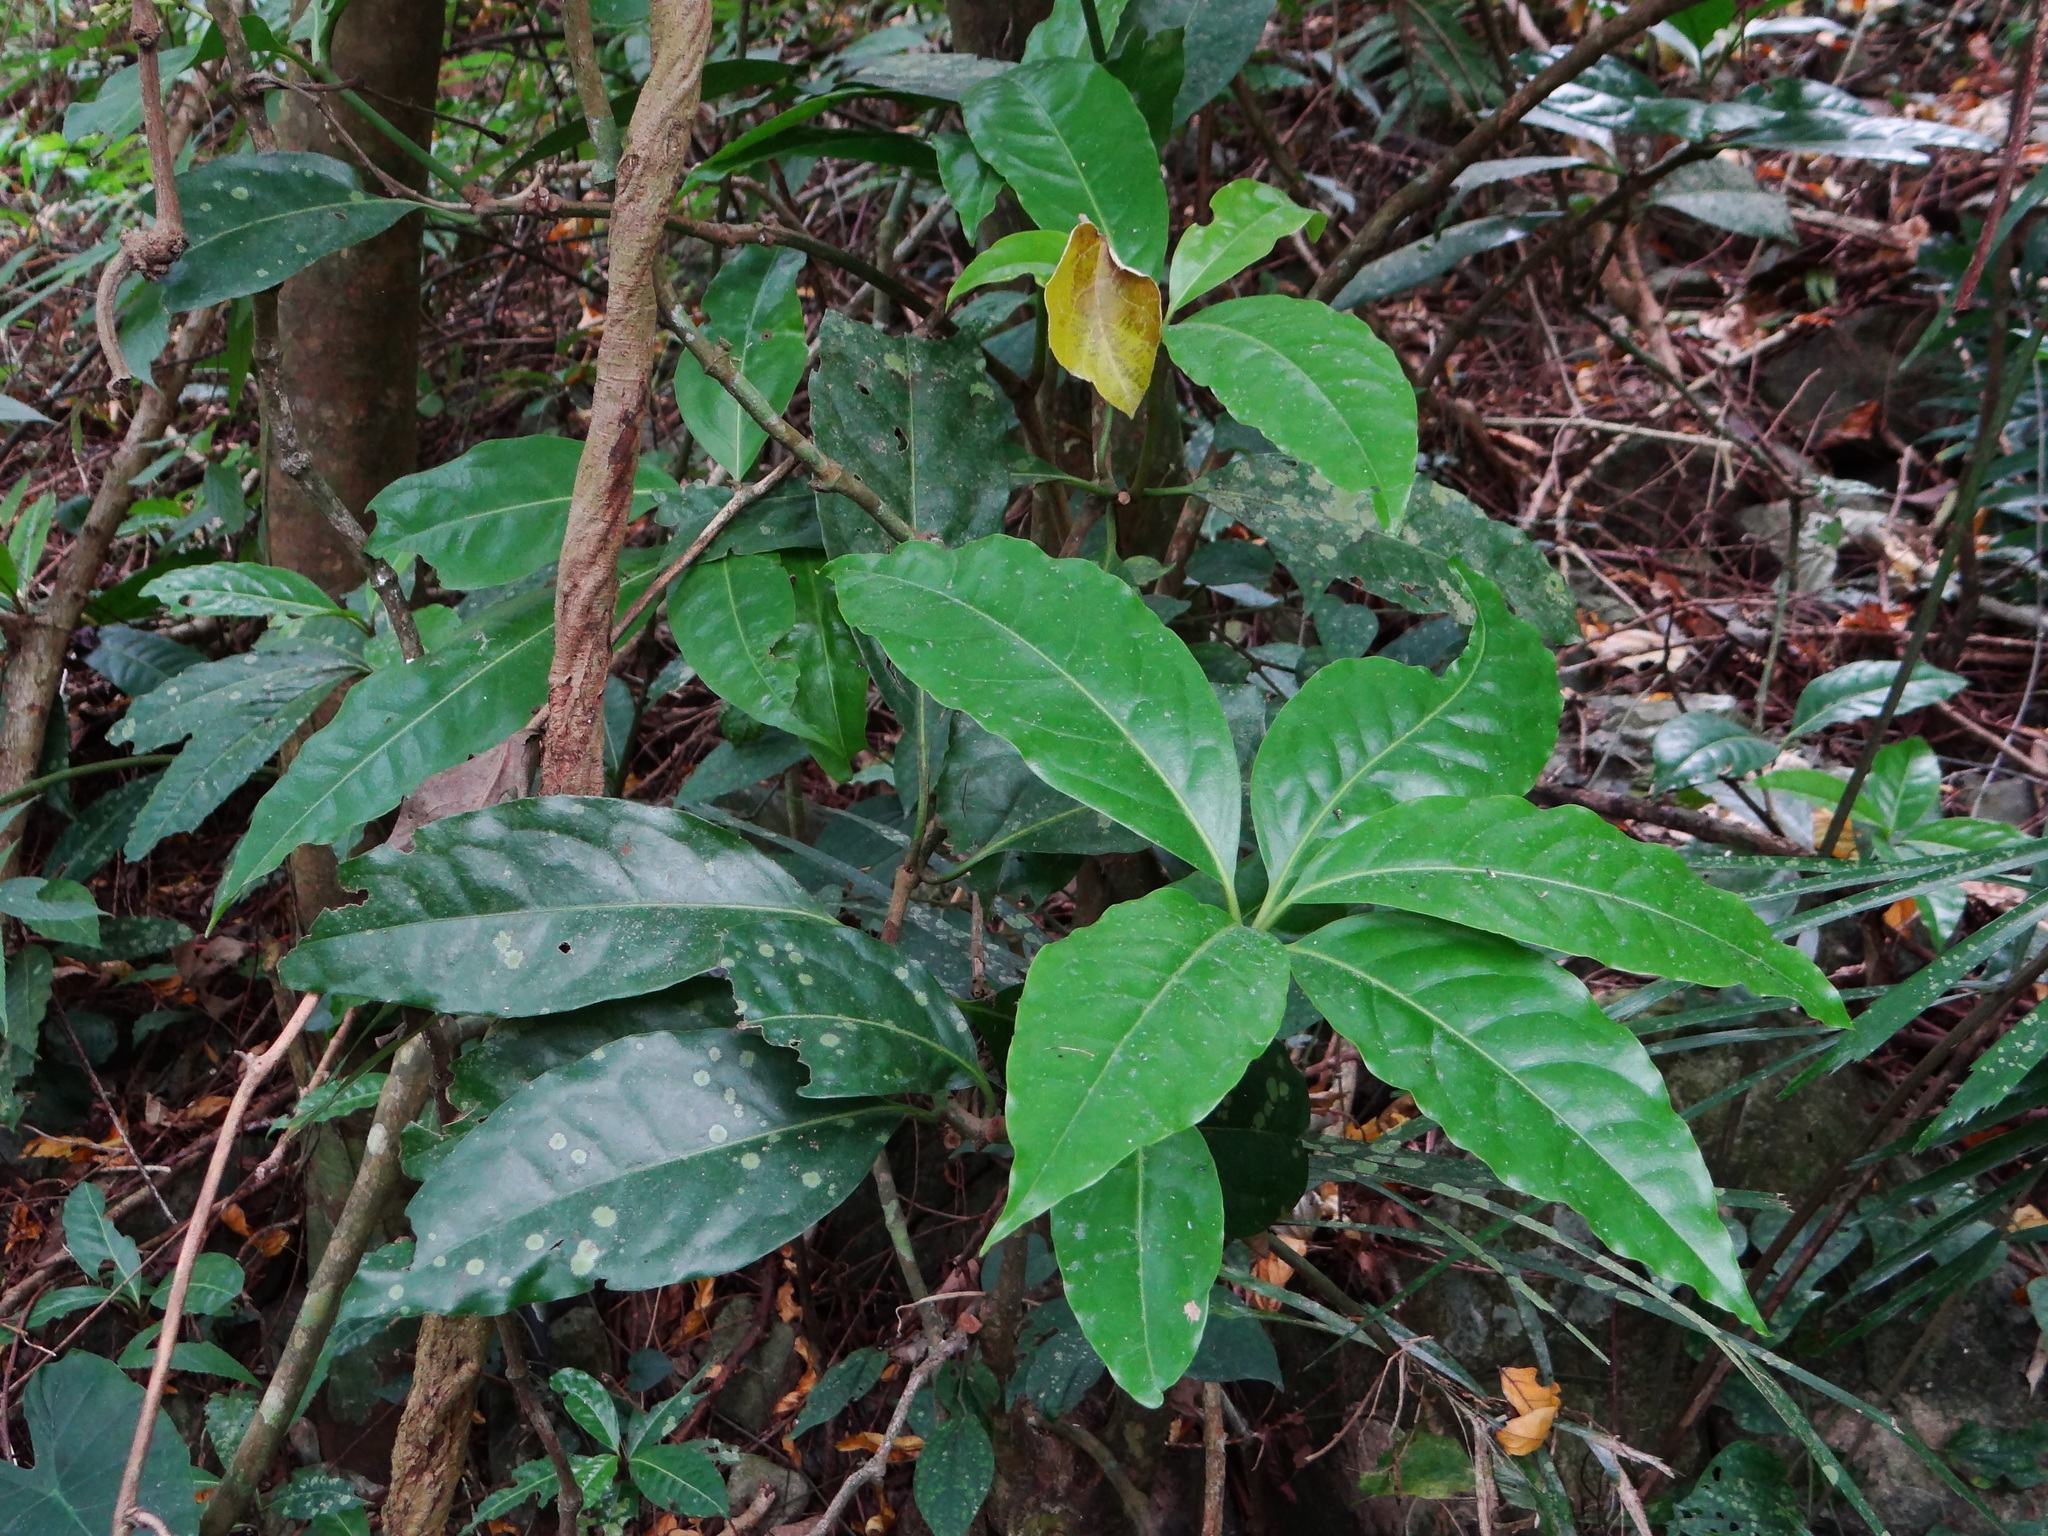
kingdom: Plantae
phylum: Tracheophyta
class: Magnoliopsida
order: Caryophyllales
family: Nyctaginaceae
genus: Ceodes
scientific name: Ceodes umbellifera
